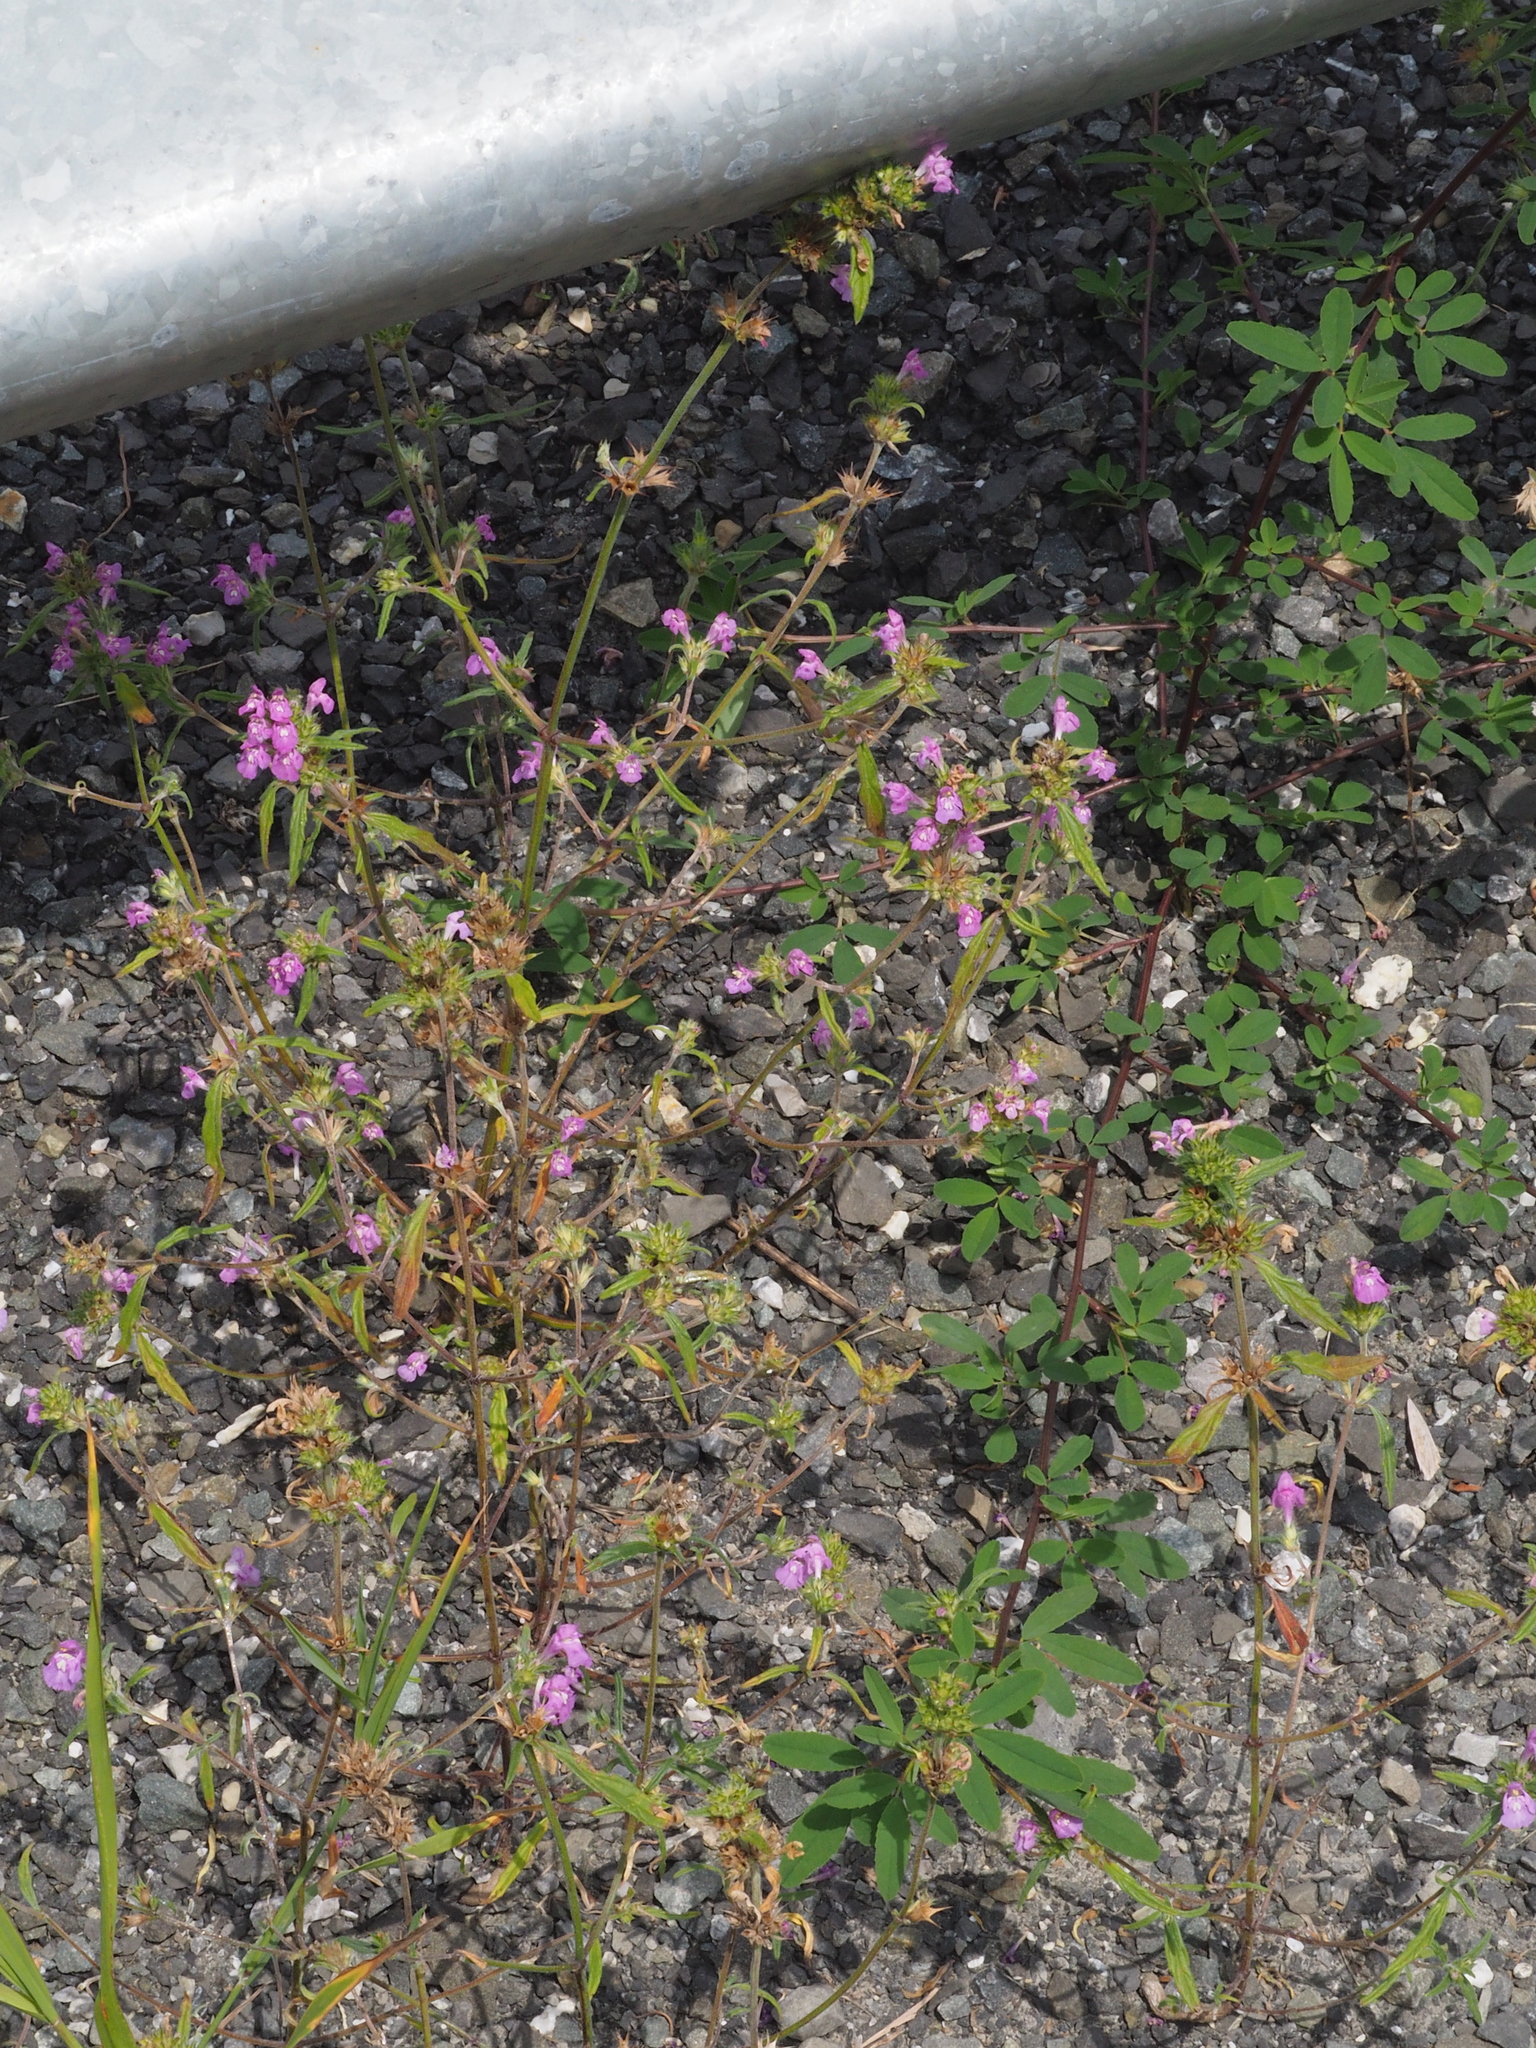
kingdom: Plantae
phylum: Tracheophyta
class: Magnoliopsida
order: Lamiales
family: Lamiaceae
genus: Galeopsis
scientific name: Galeopsis angustifolia
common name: Red hemp-nettle
